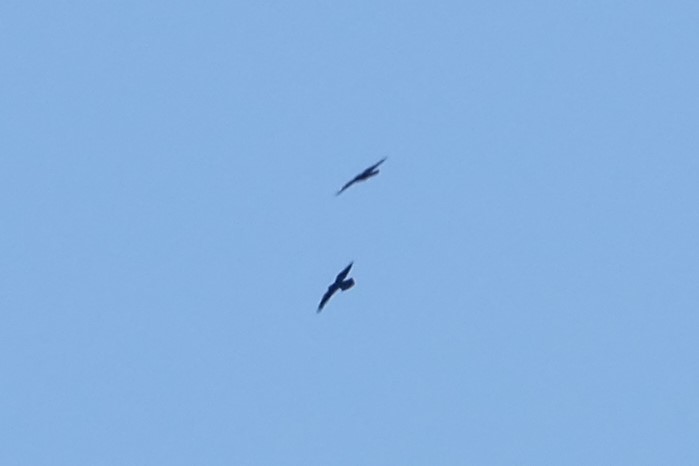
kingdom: Animalia
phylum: Chordata
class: Aves
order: Passeriformes
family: Corvidae
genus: Corvus
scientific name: Corvus corax
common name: Common raven
